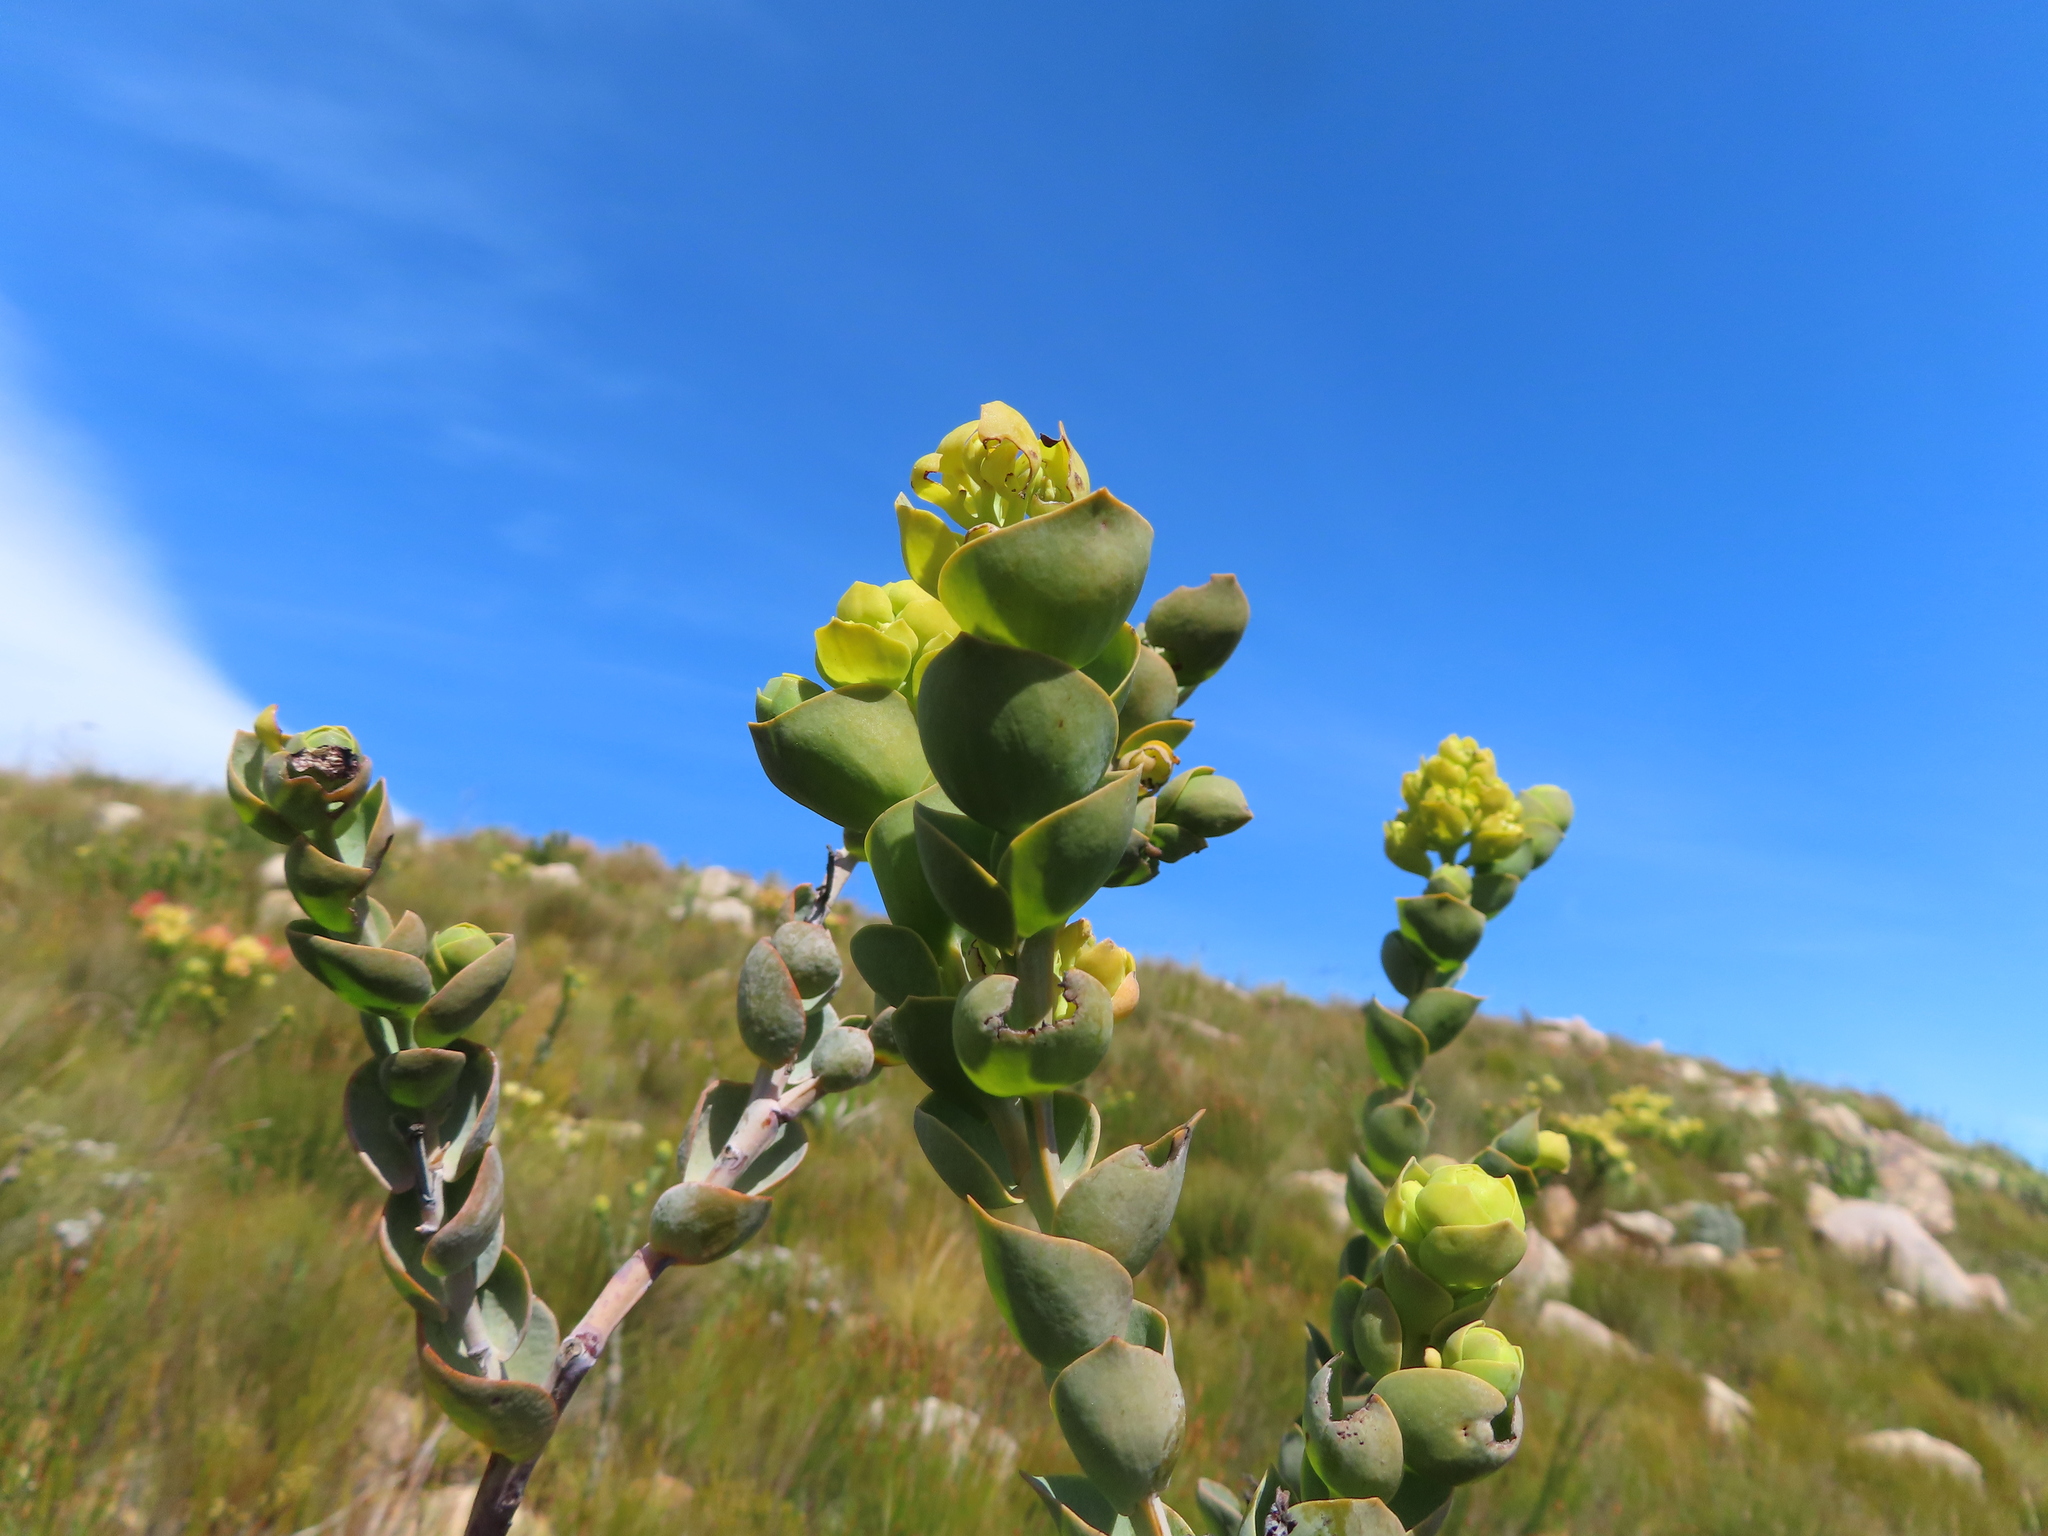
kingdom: Plantae
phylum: Tracheophyta
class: Magnoliopsida
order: Santalales
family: Thesiaceae
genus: Thesium
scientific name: Thesium euphorbioides
